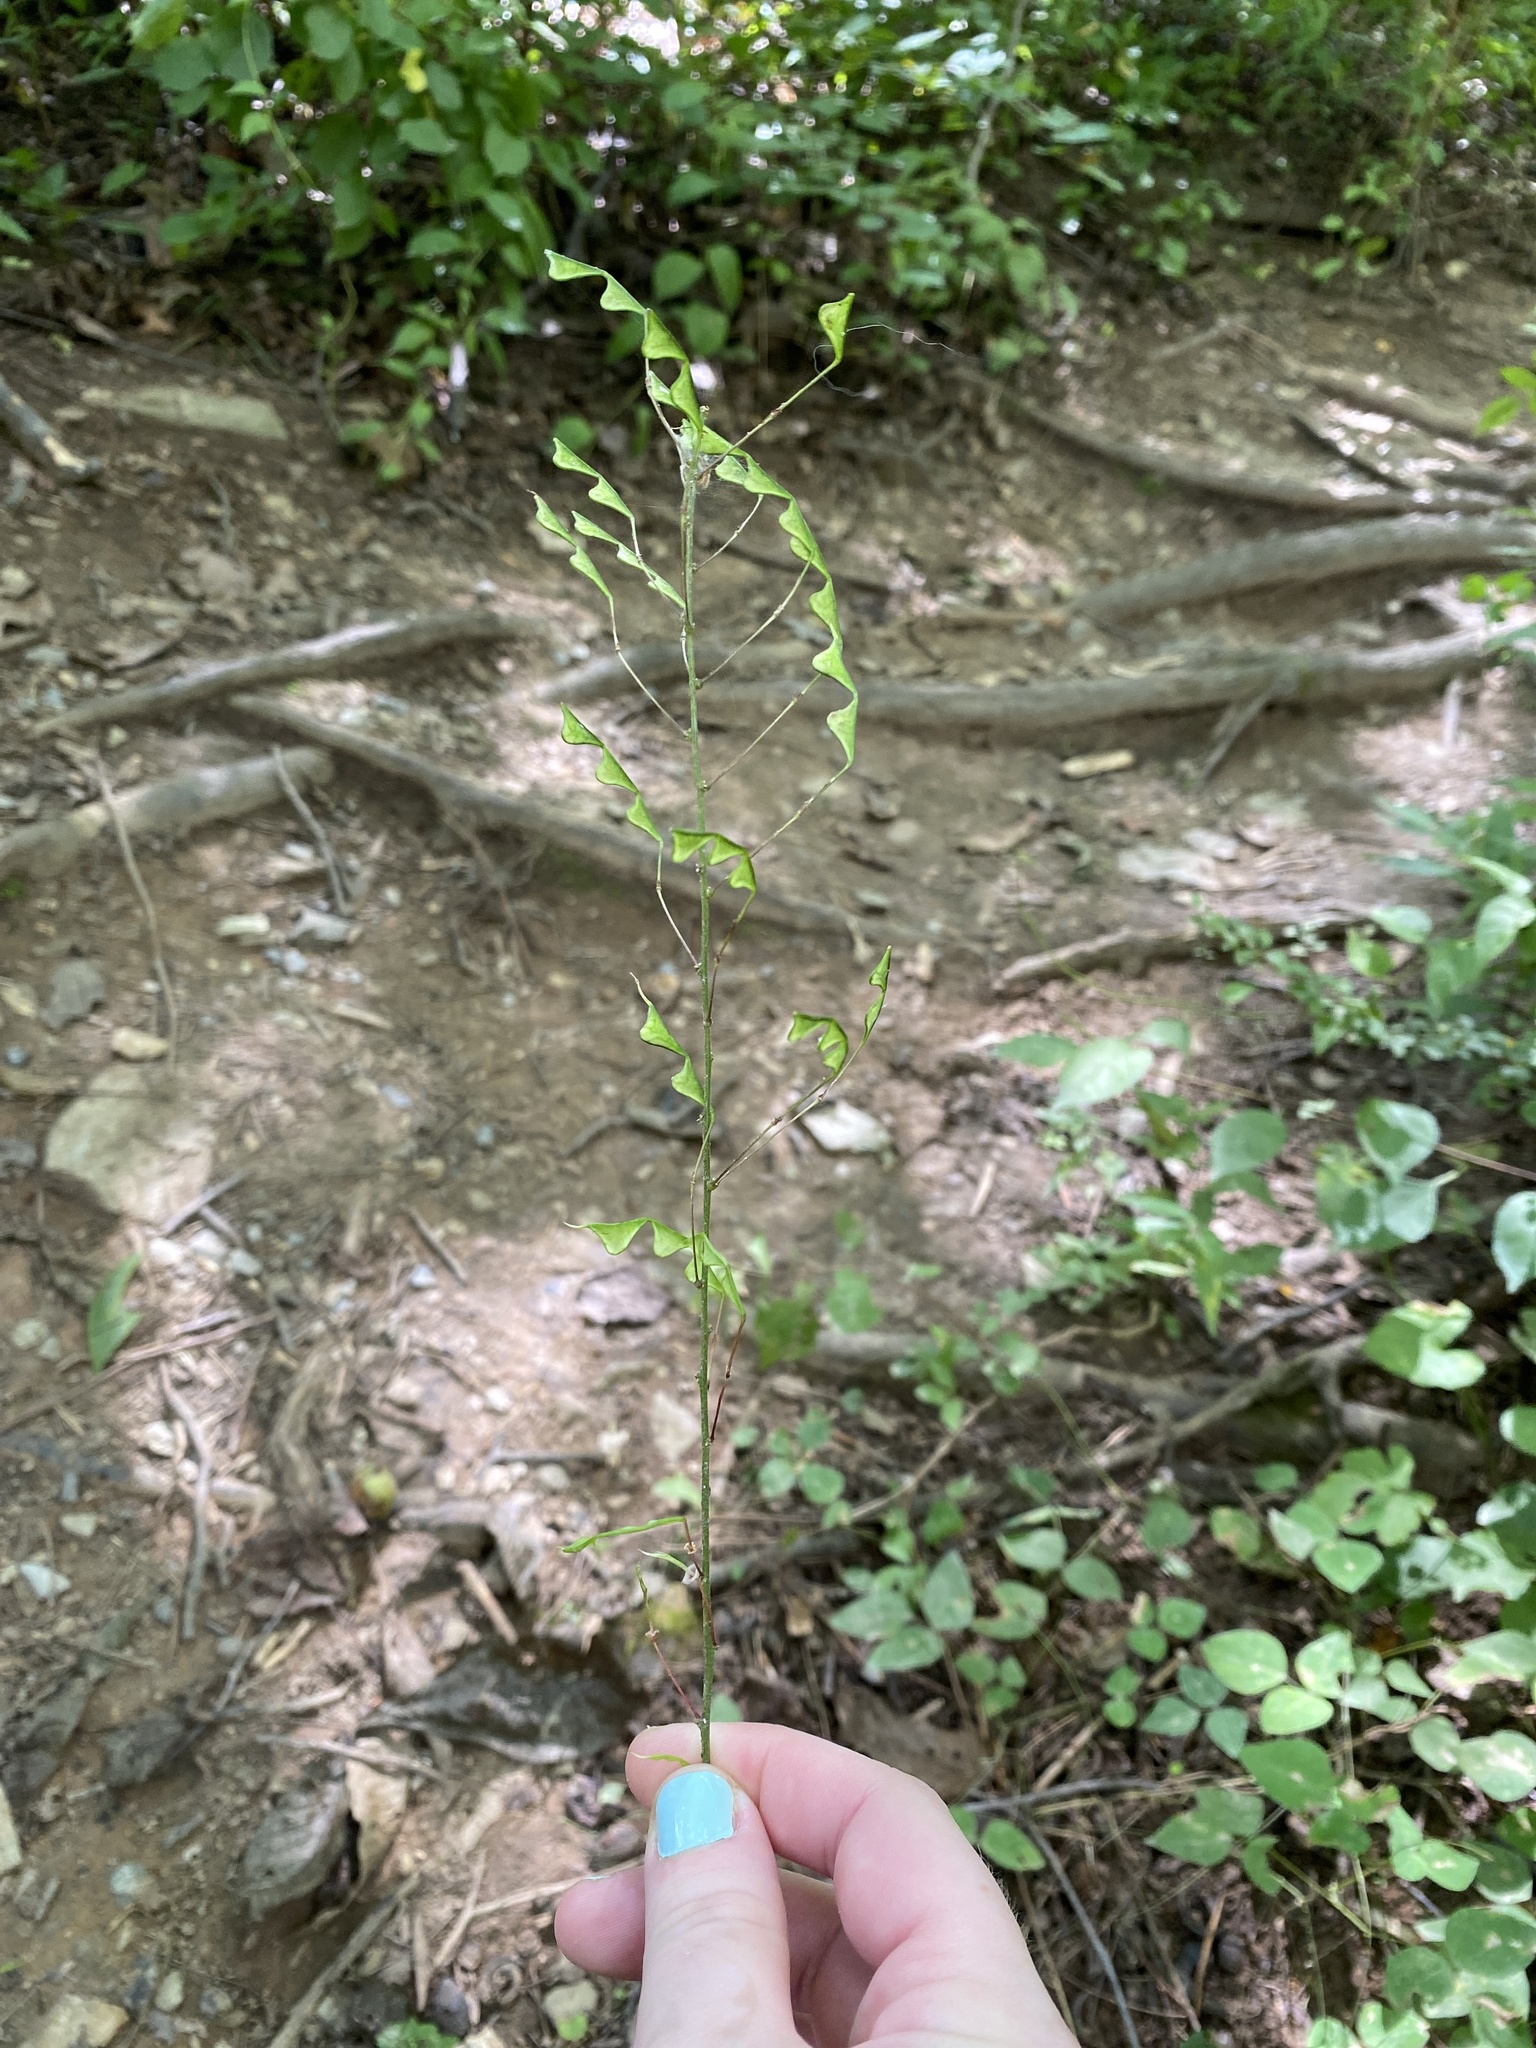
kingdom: Plantae
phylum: Tracheophyta
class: Magnoliopsida
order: Fabales
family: Fabaceae
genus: Hylodesmum
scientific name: Hylodesmum nudiflorum
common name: Bare-stemmed tick-trefoil
